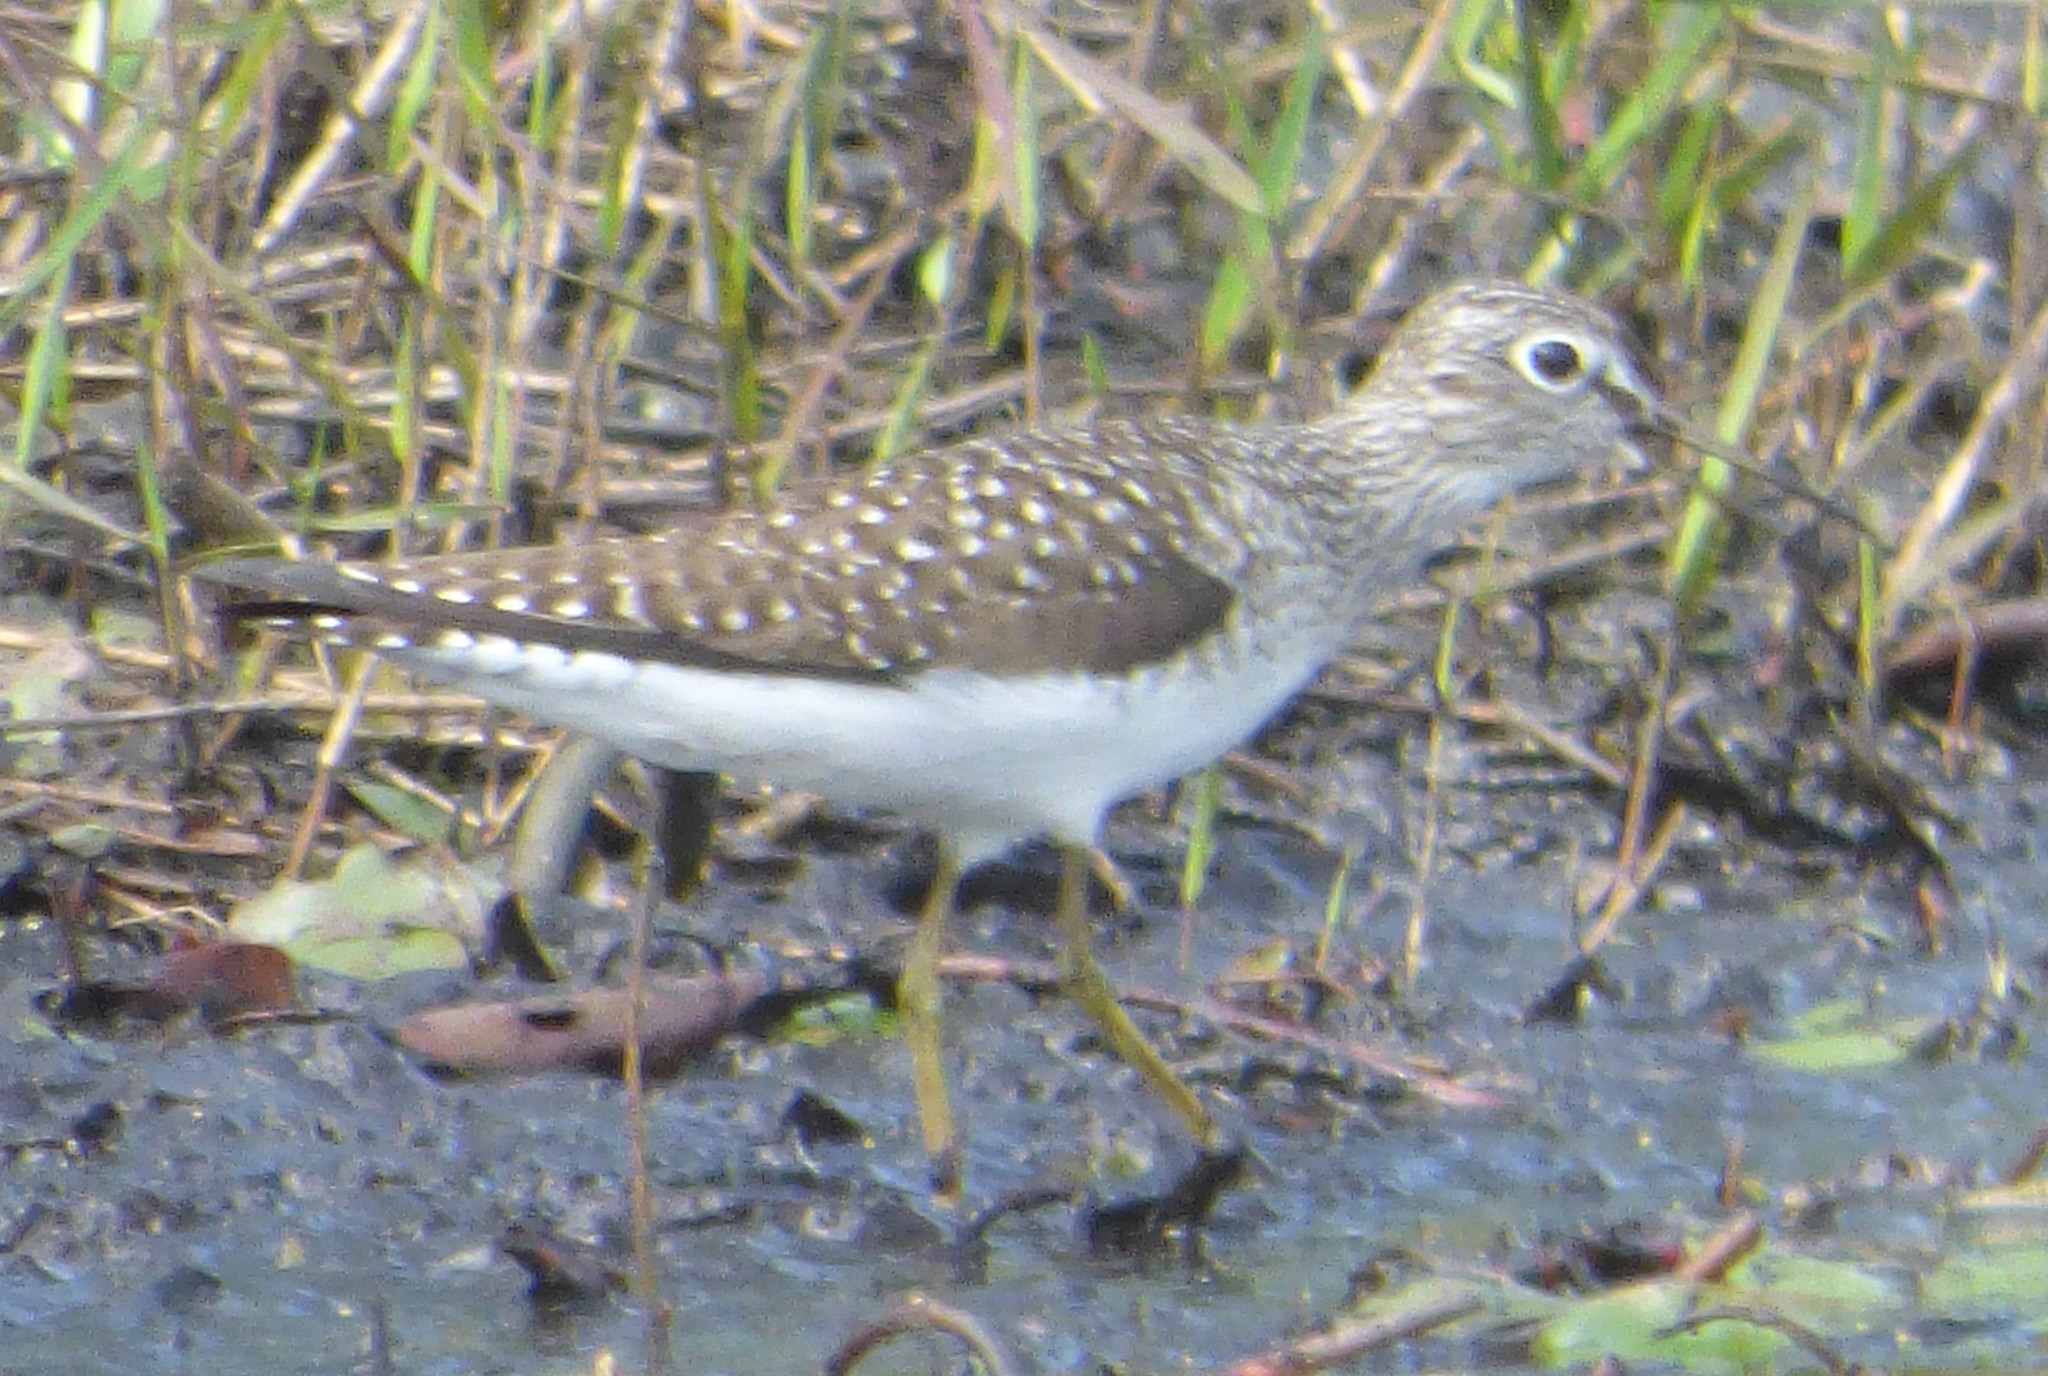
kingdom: Animalia
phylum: Chordata
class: Aves
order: Charadriiformes
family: Scolopacidae
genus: Tringa
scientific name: Tringa solitaria
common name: Solitary sandpiper
